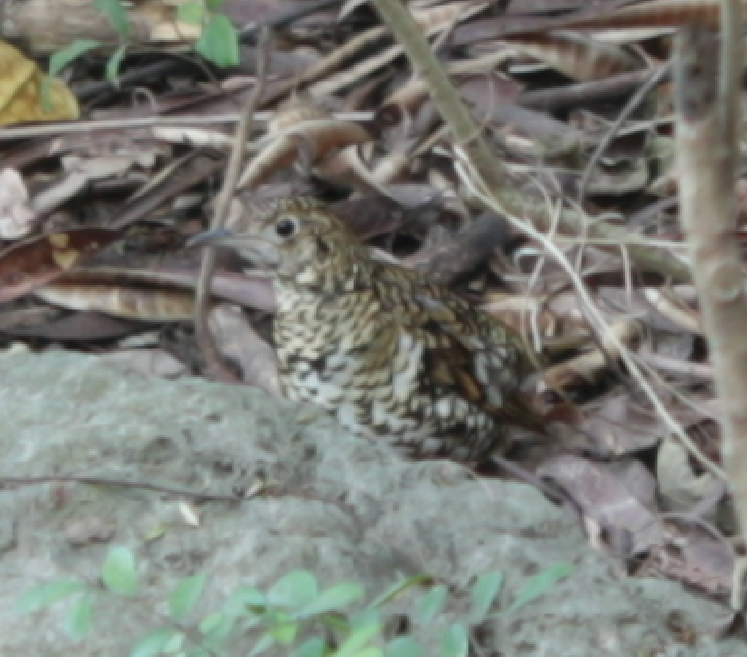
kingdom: Animalia
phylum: Chordata
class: Aves
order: Passeriformes
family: Turdidae
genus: Zoothera
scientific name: Zoothera aurea
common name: White's thrush
